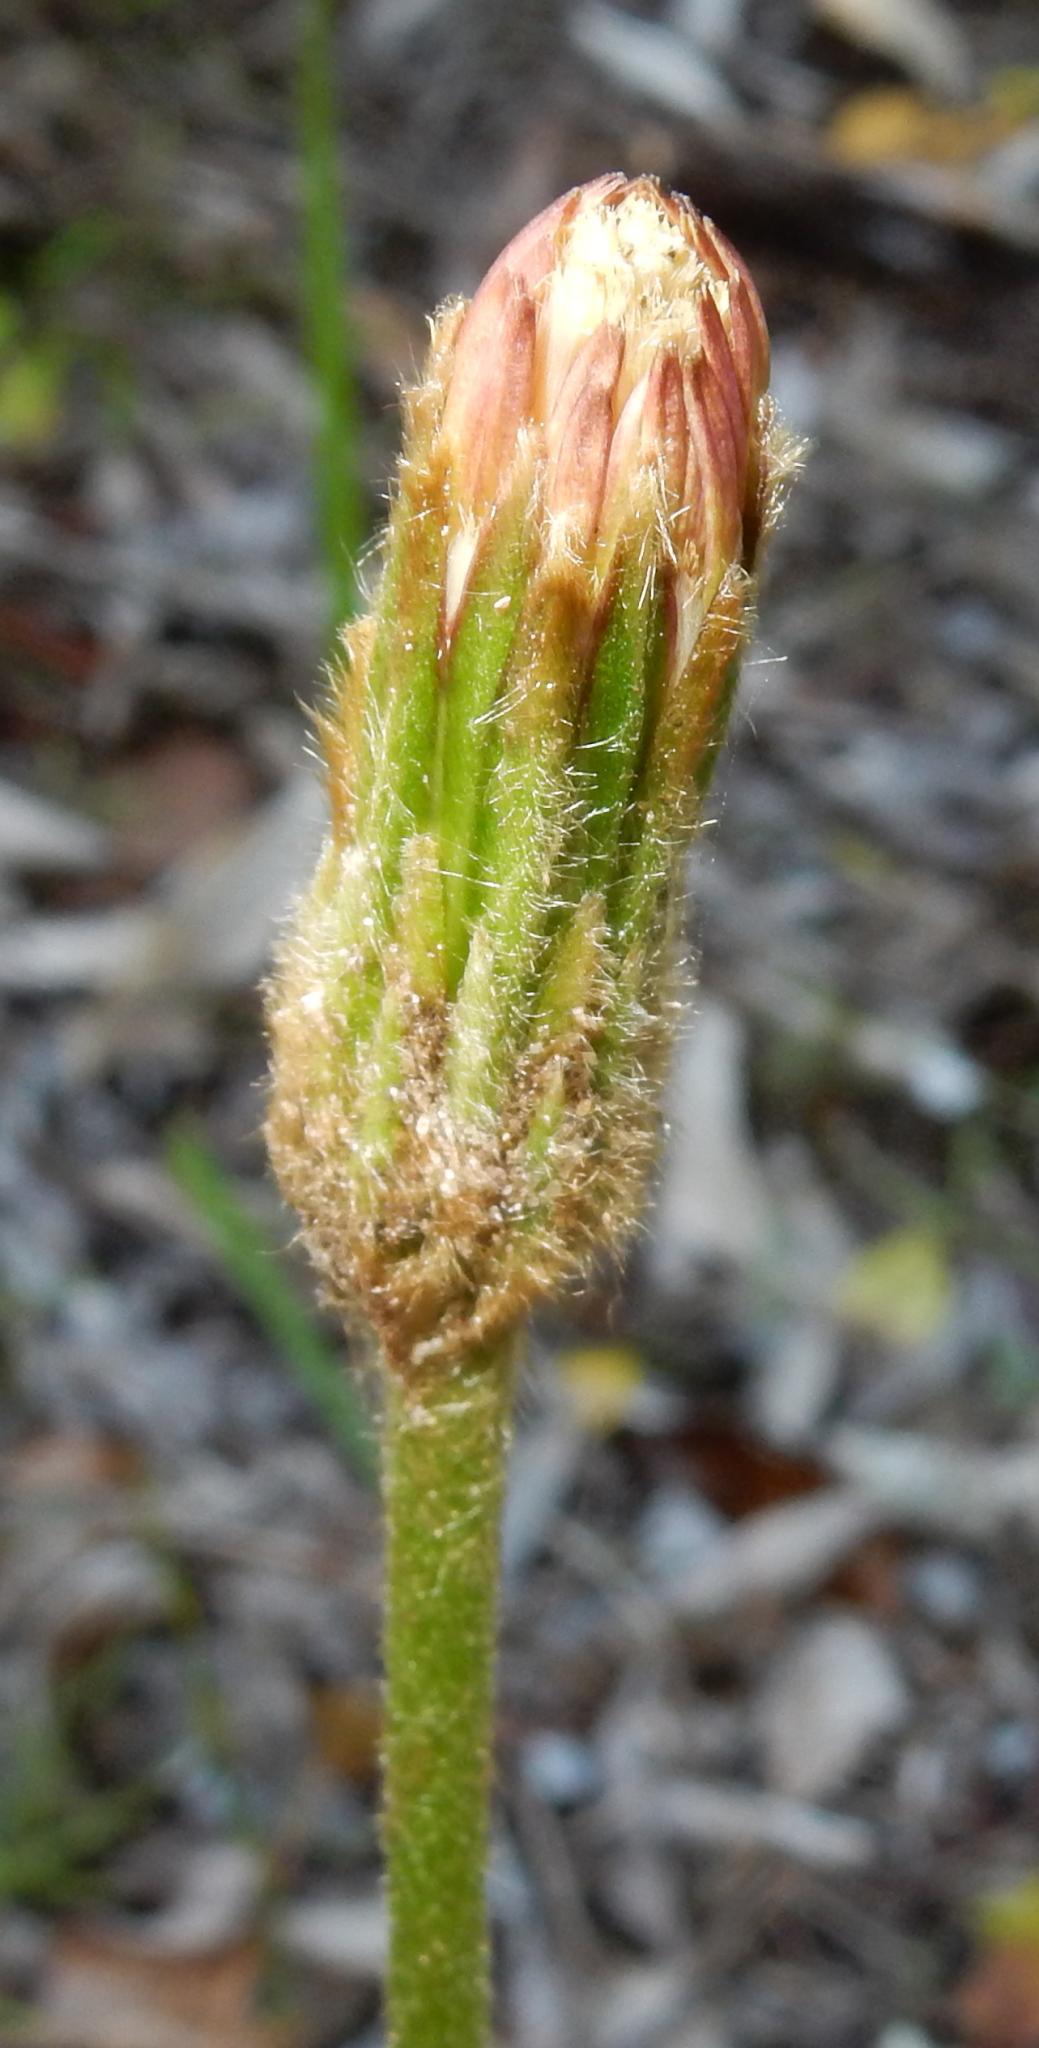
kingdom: Plantae
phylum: Tracheophyta
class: Magnoliopsida
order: Asterales
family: Asteraceae
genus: Piloselloides
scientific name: Piloselloides hirsuta
